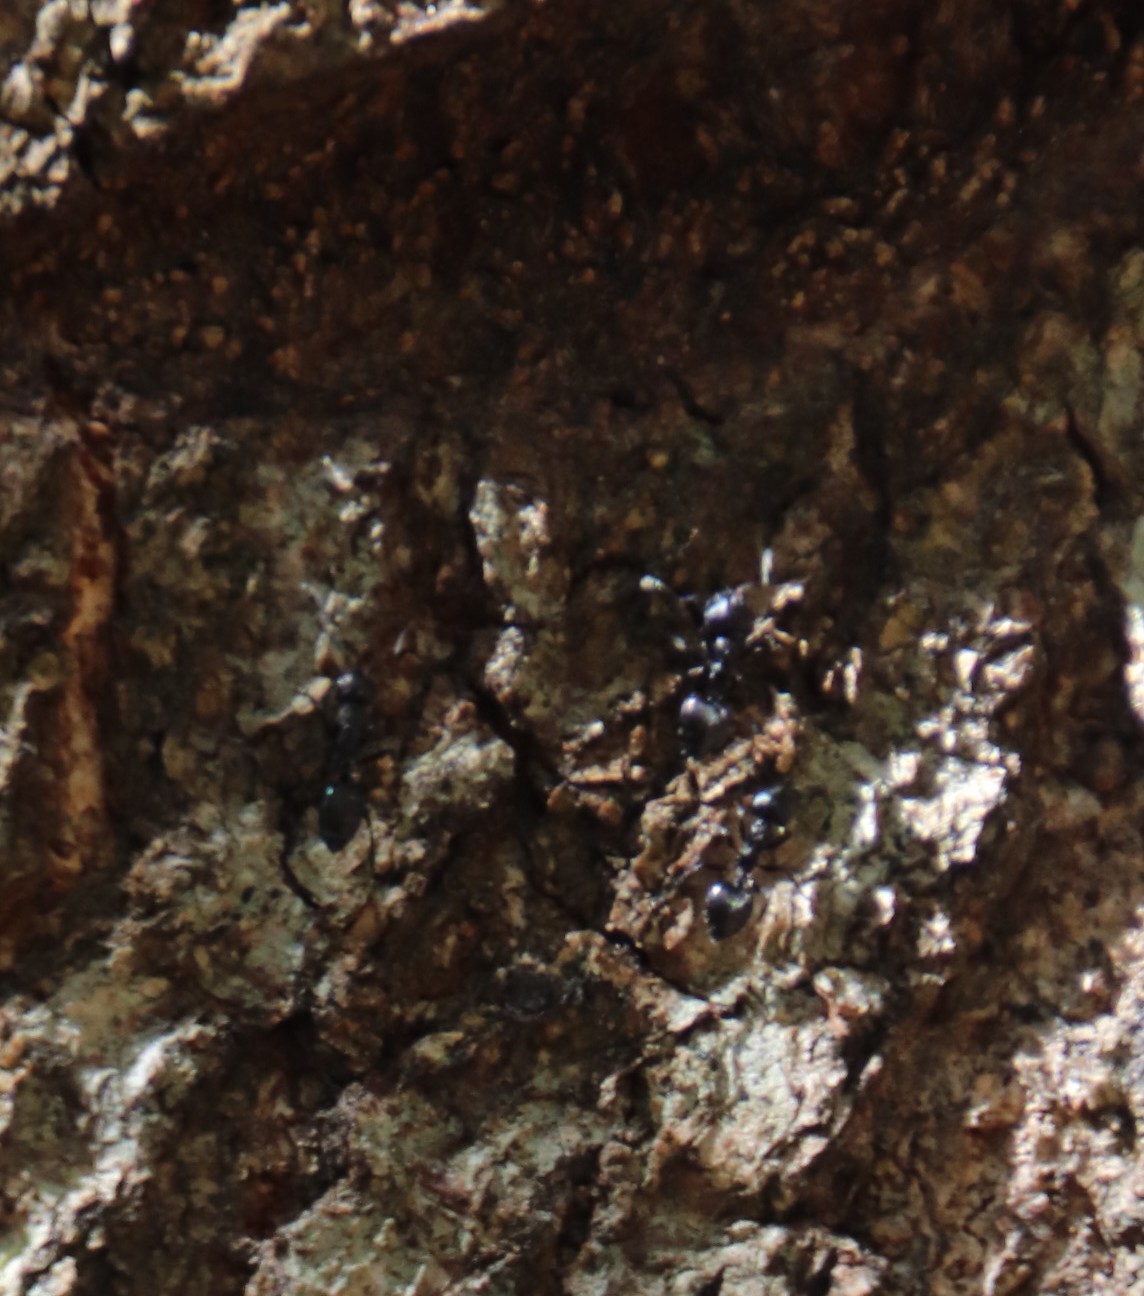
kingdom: Plantae
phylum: Tracheophyta
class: Magnoliopsida
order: Fagales
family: Fagaceae
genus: Quercus
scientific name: Quercus robur
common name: Pedunculate oak
